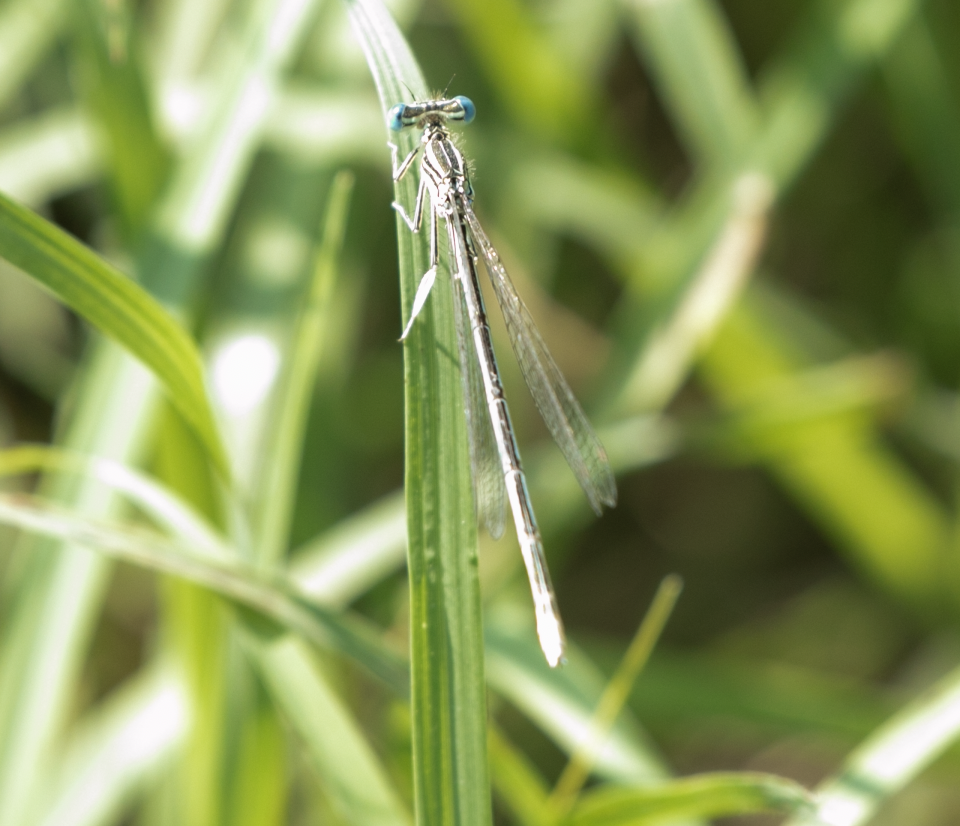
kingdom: Animalia
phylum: Arthropoda
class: Insecta
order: Odonata
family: Platycnemididae
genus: Platycnemis
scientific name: Platycnemis pennipes
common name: White-legged damselfly
